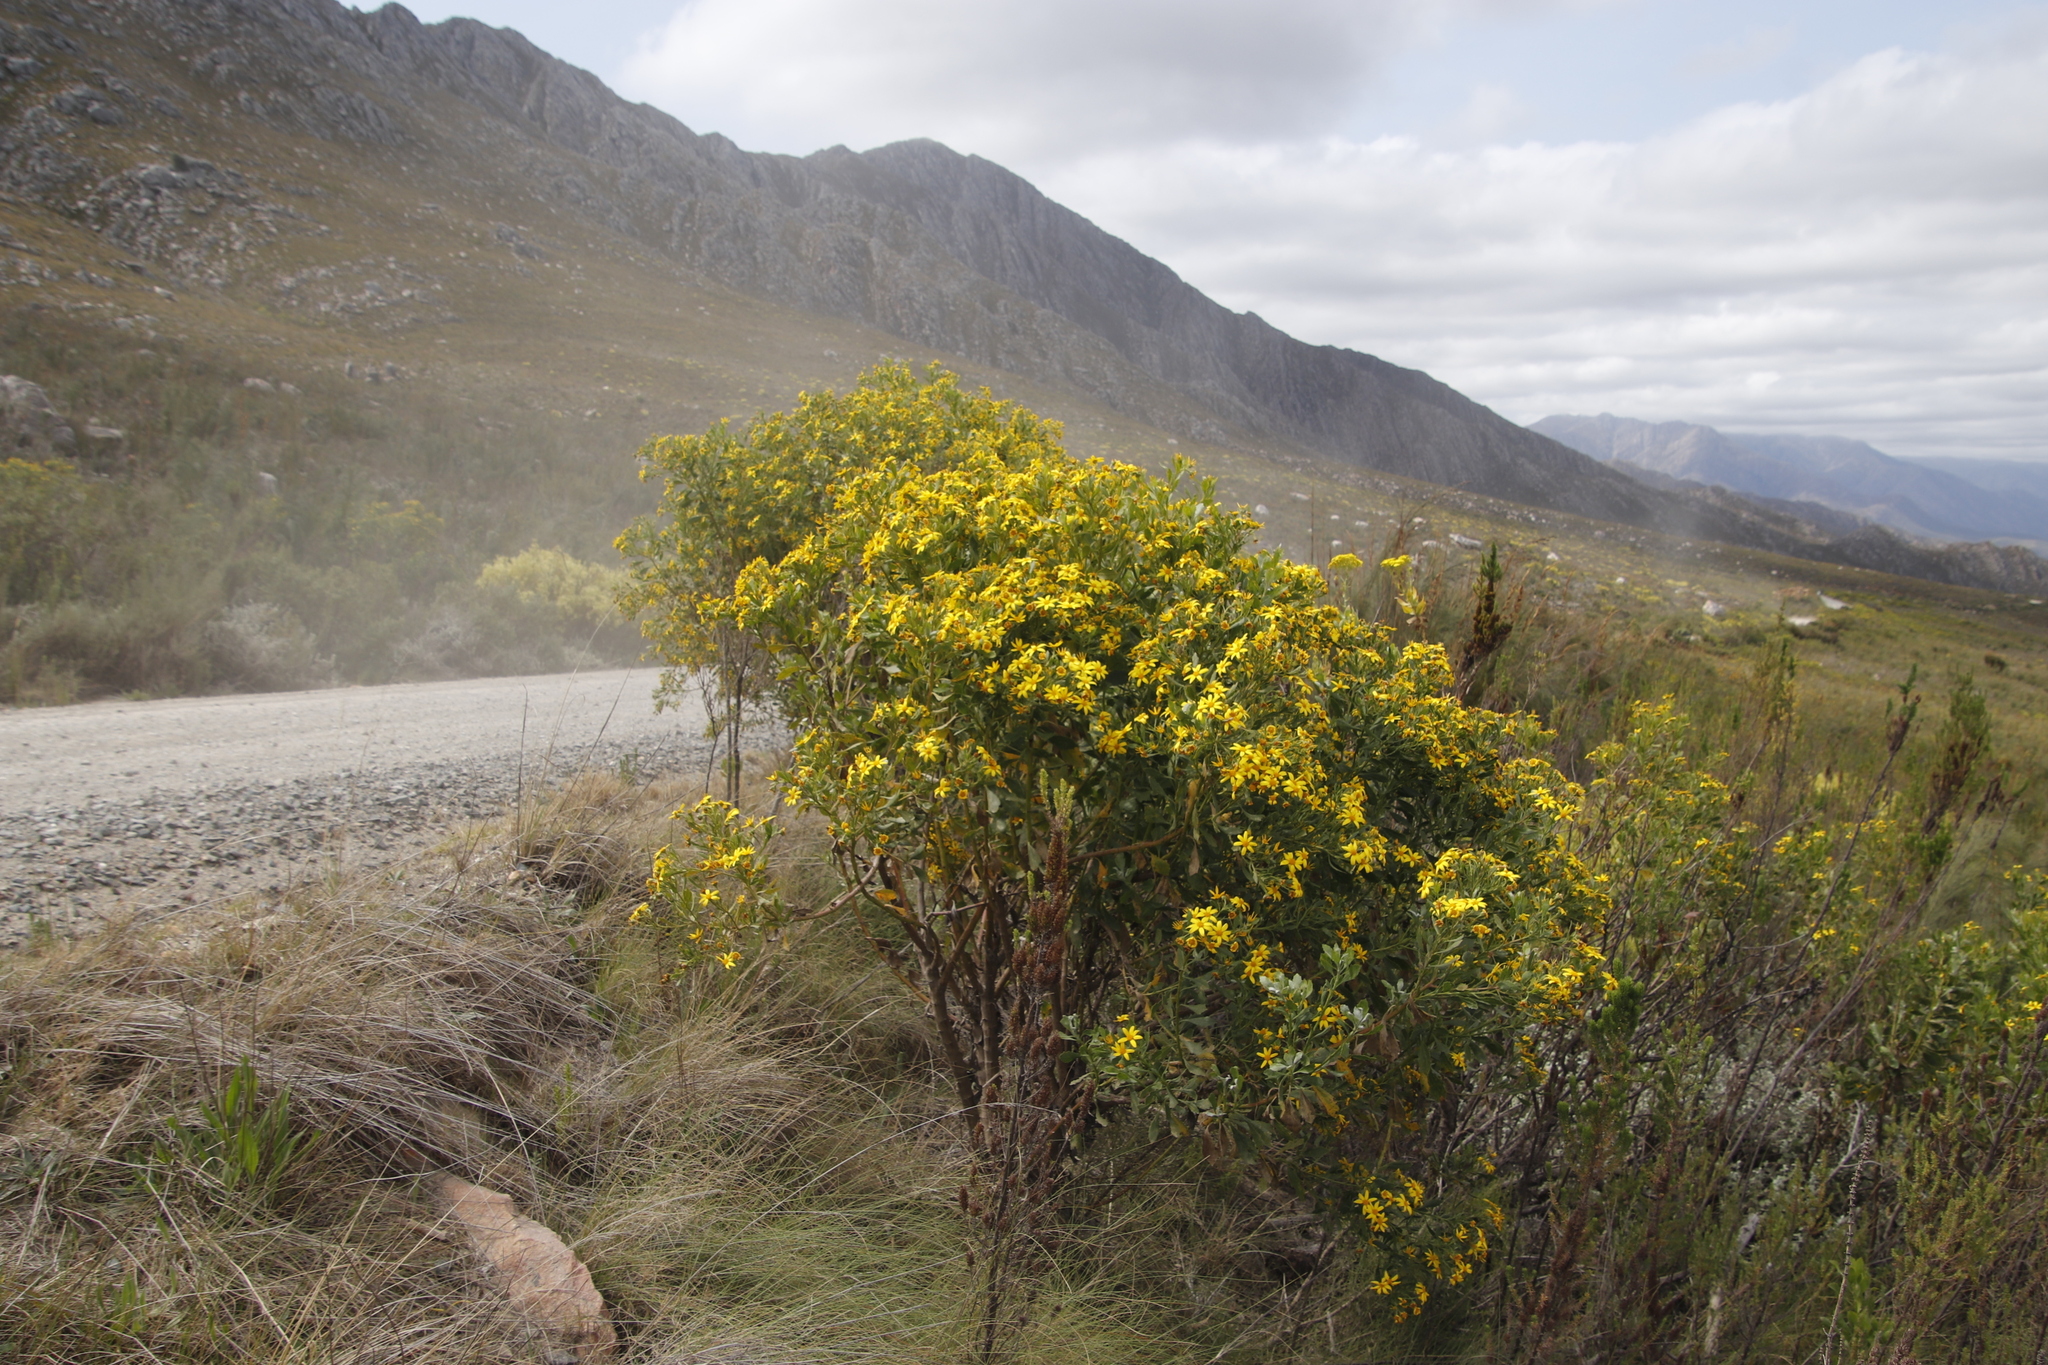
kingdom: Plantae
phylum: Tracheophyta
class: Magnoliopsida
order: Asterales
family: Asteraceae
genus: Osteospermum
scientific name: Osteospermum moniliferum
